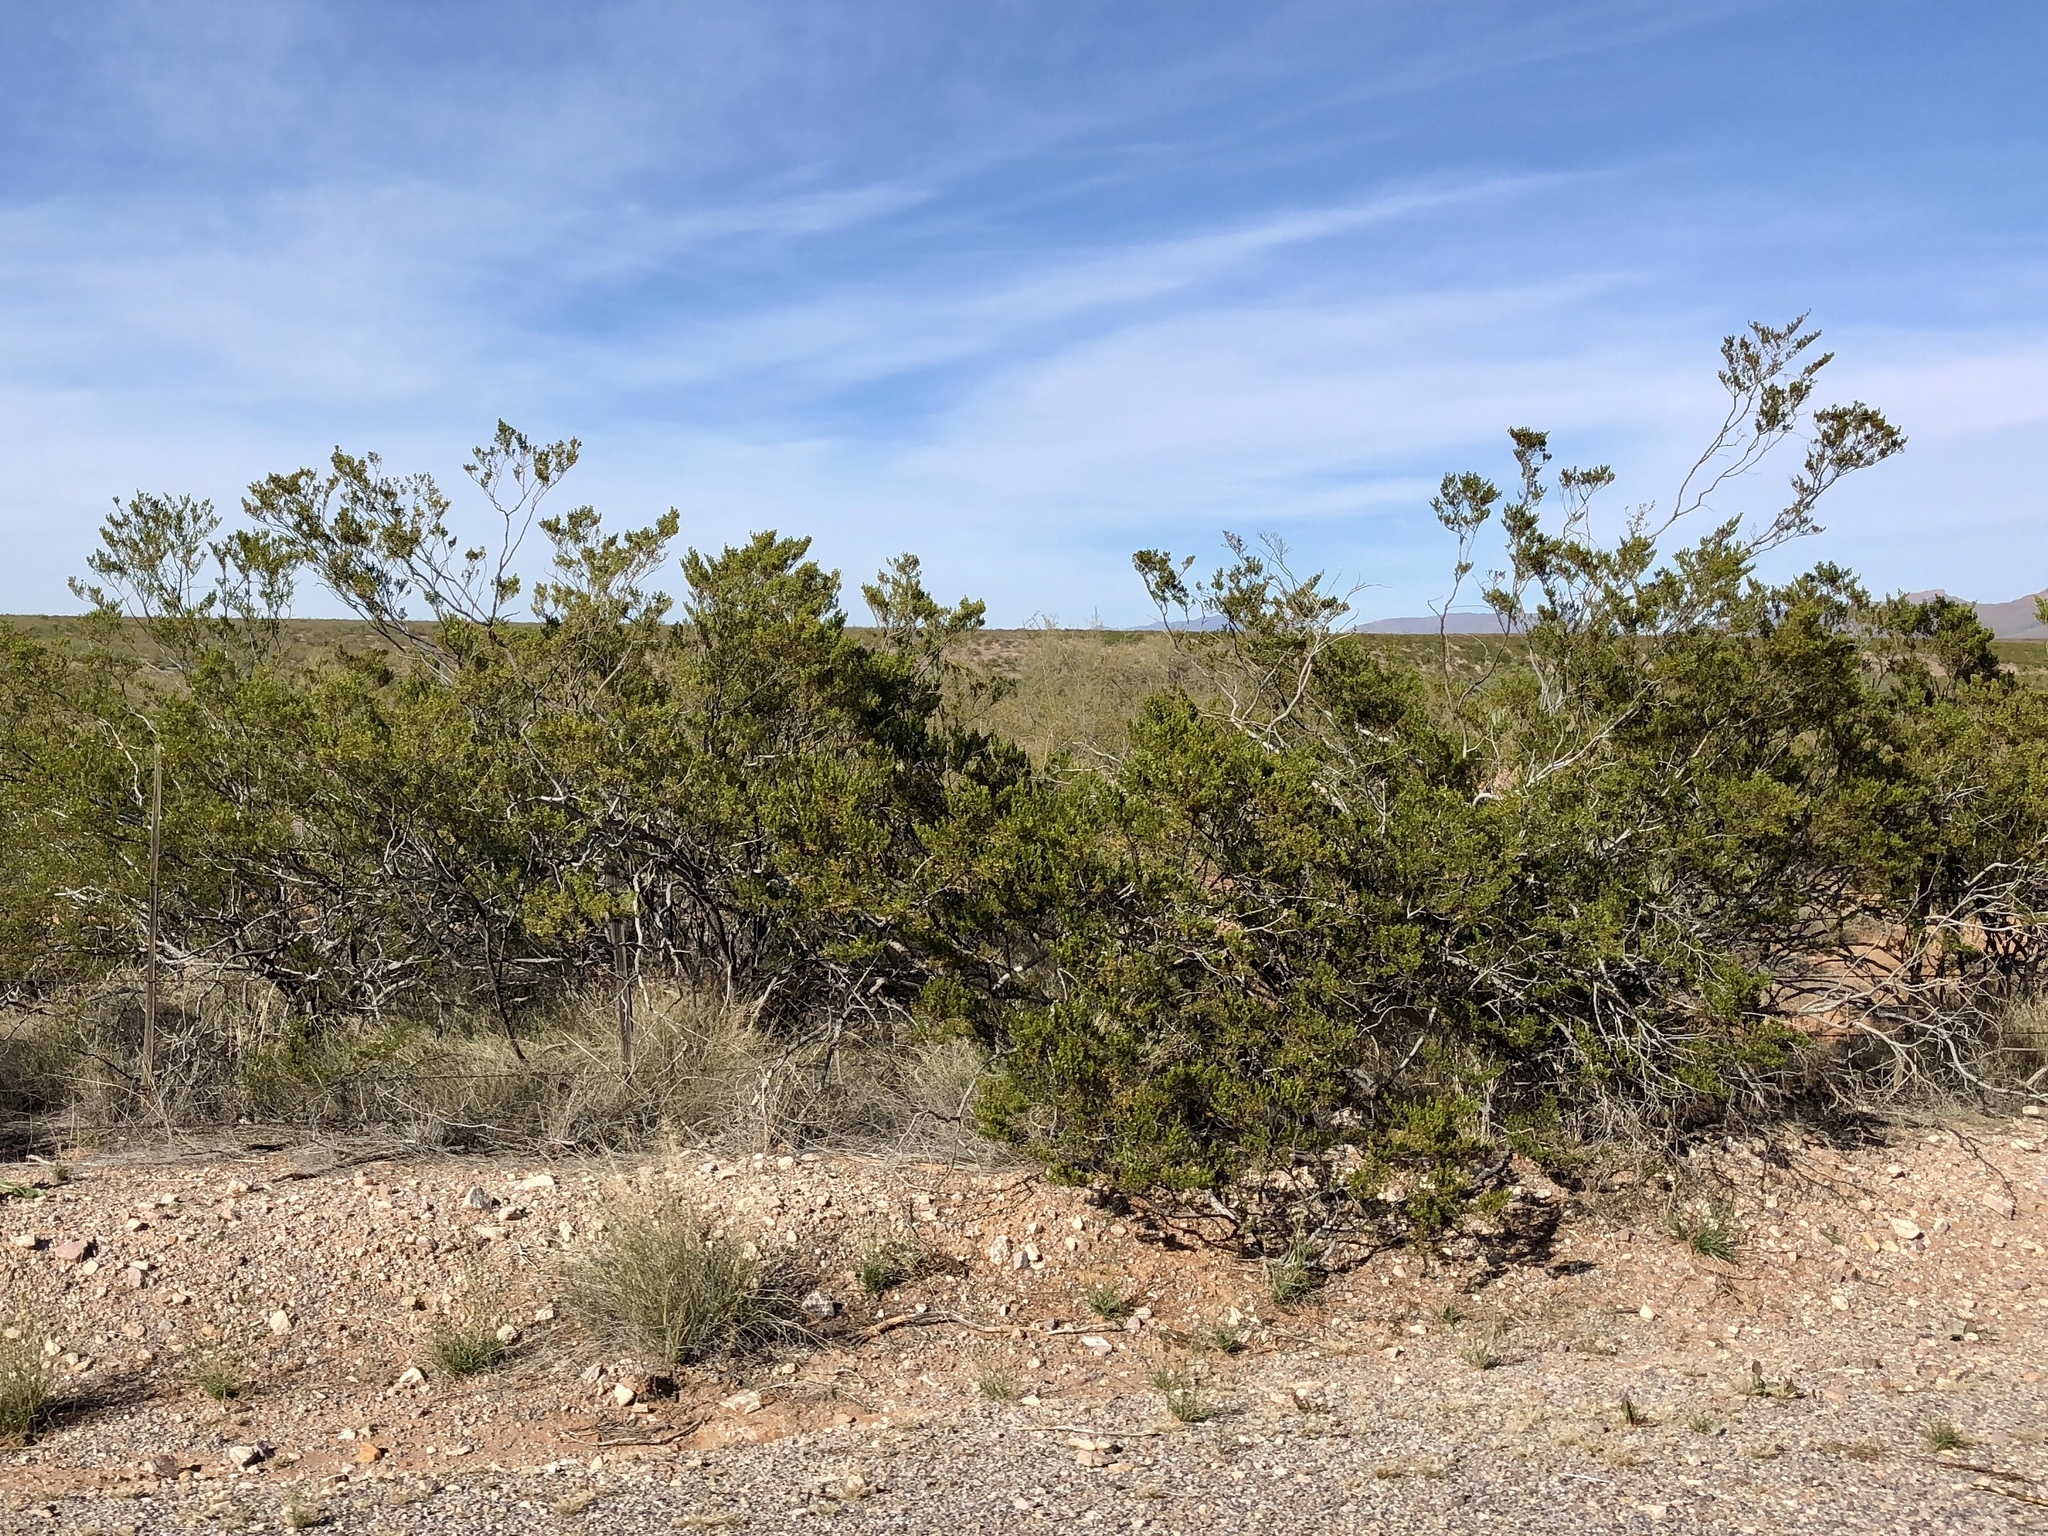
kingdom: Plantae
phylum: Tracheophyta
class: Magnoliopsida
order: Zygophyllales
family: Zygophyllaceae
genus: Larrea
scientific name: Larrea tridentata
